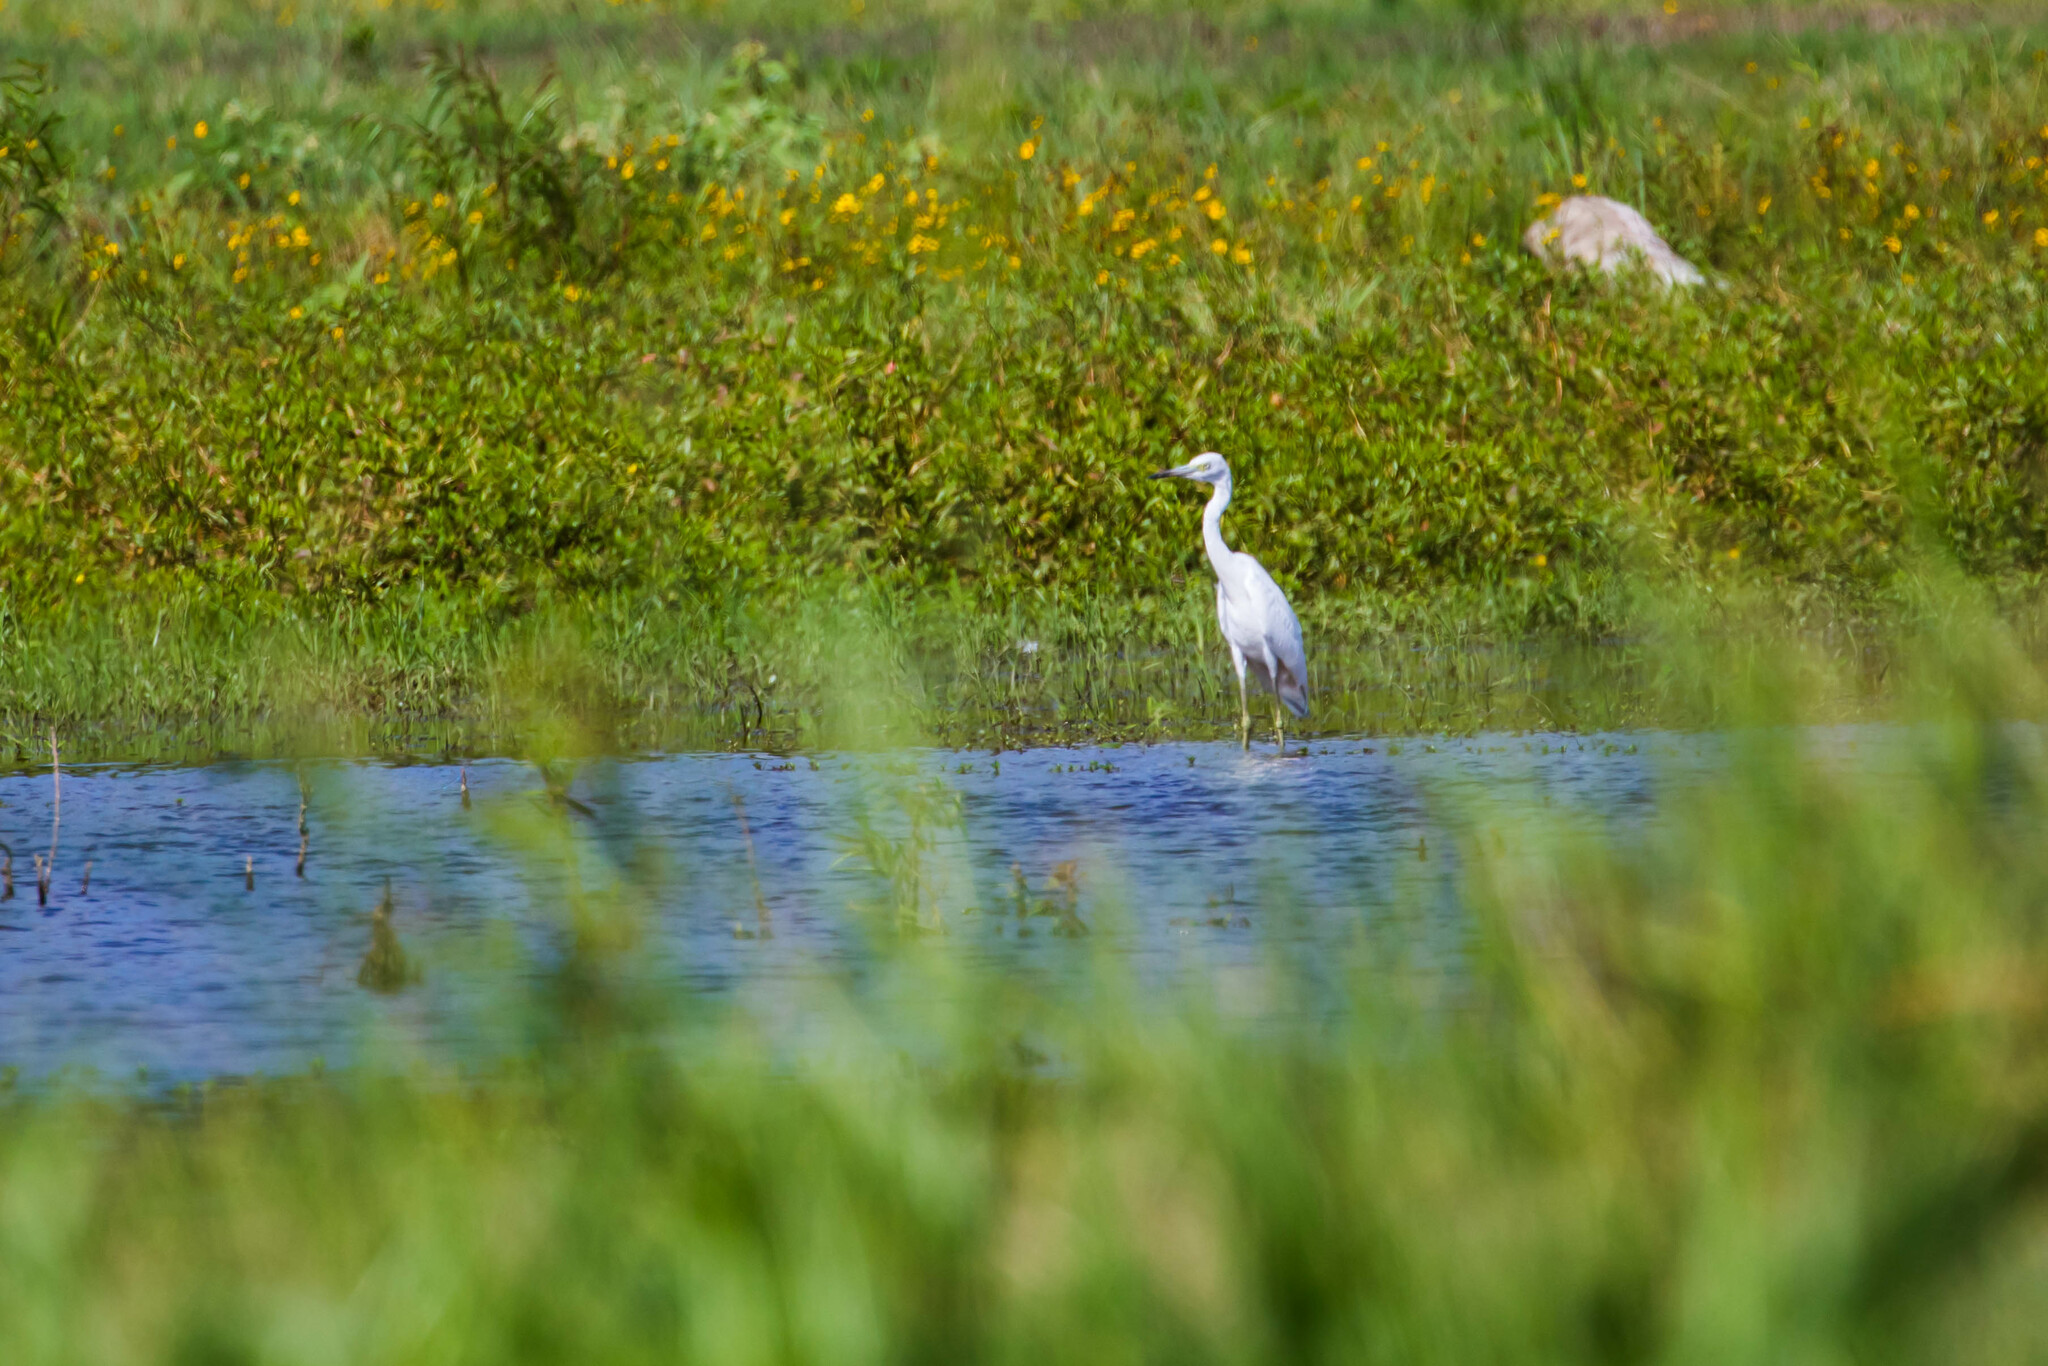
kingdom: Animalia
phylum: Chordata
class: Aves
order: Pelecaniformes
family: Ardeidae
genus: Egretta
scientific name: Egretta caerulea
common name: Little blue heron
